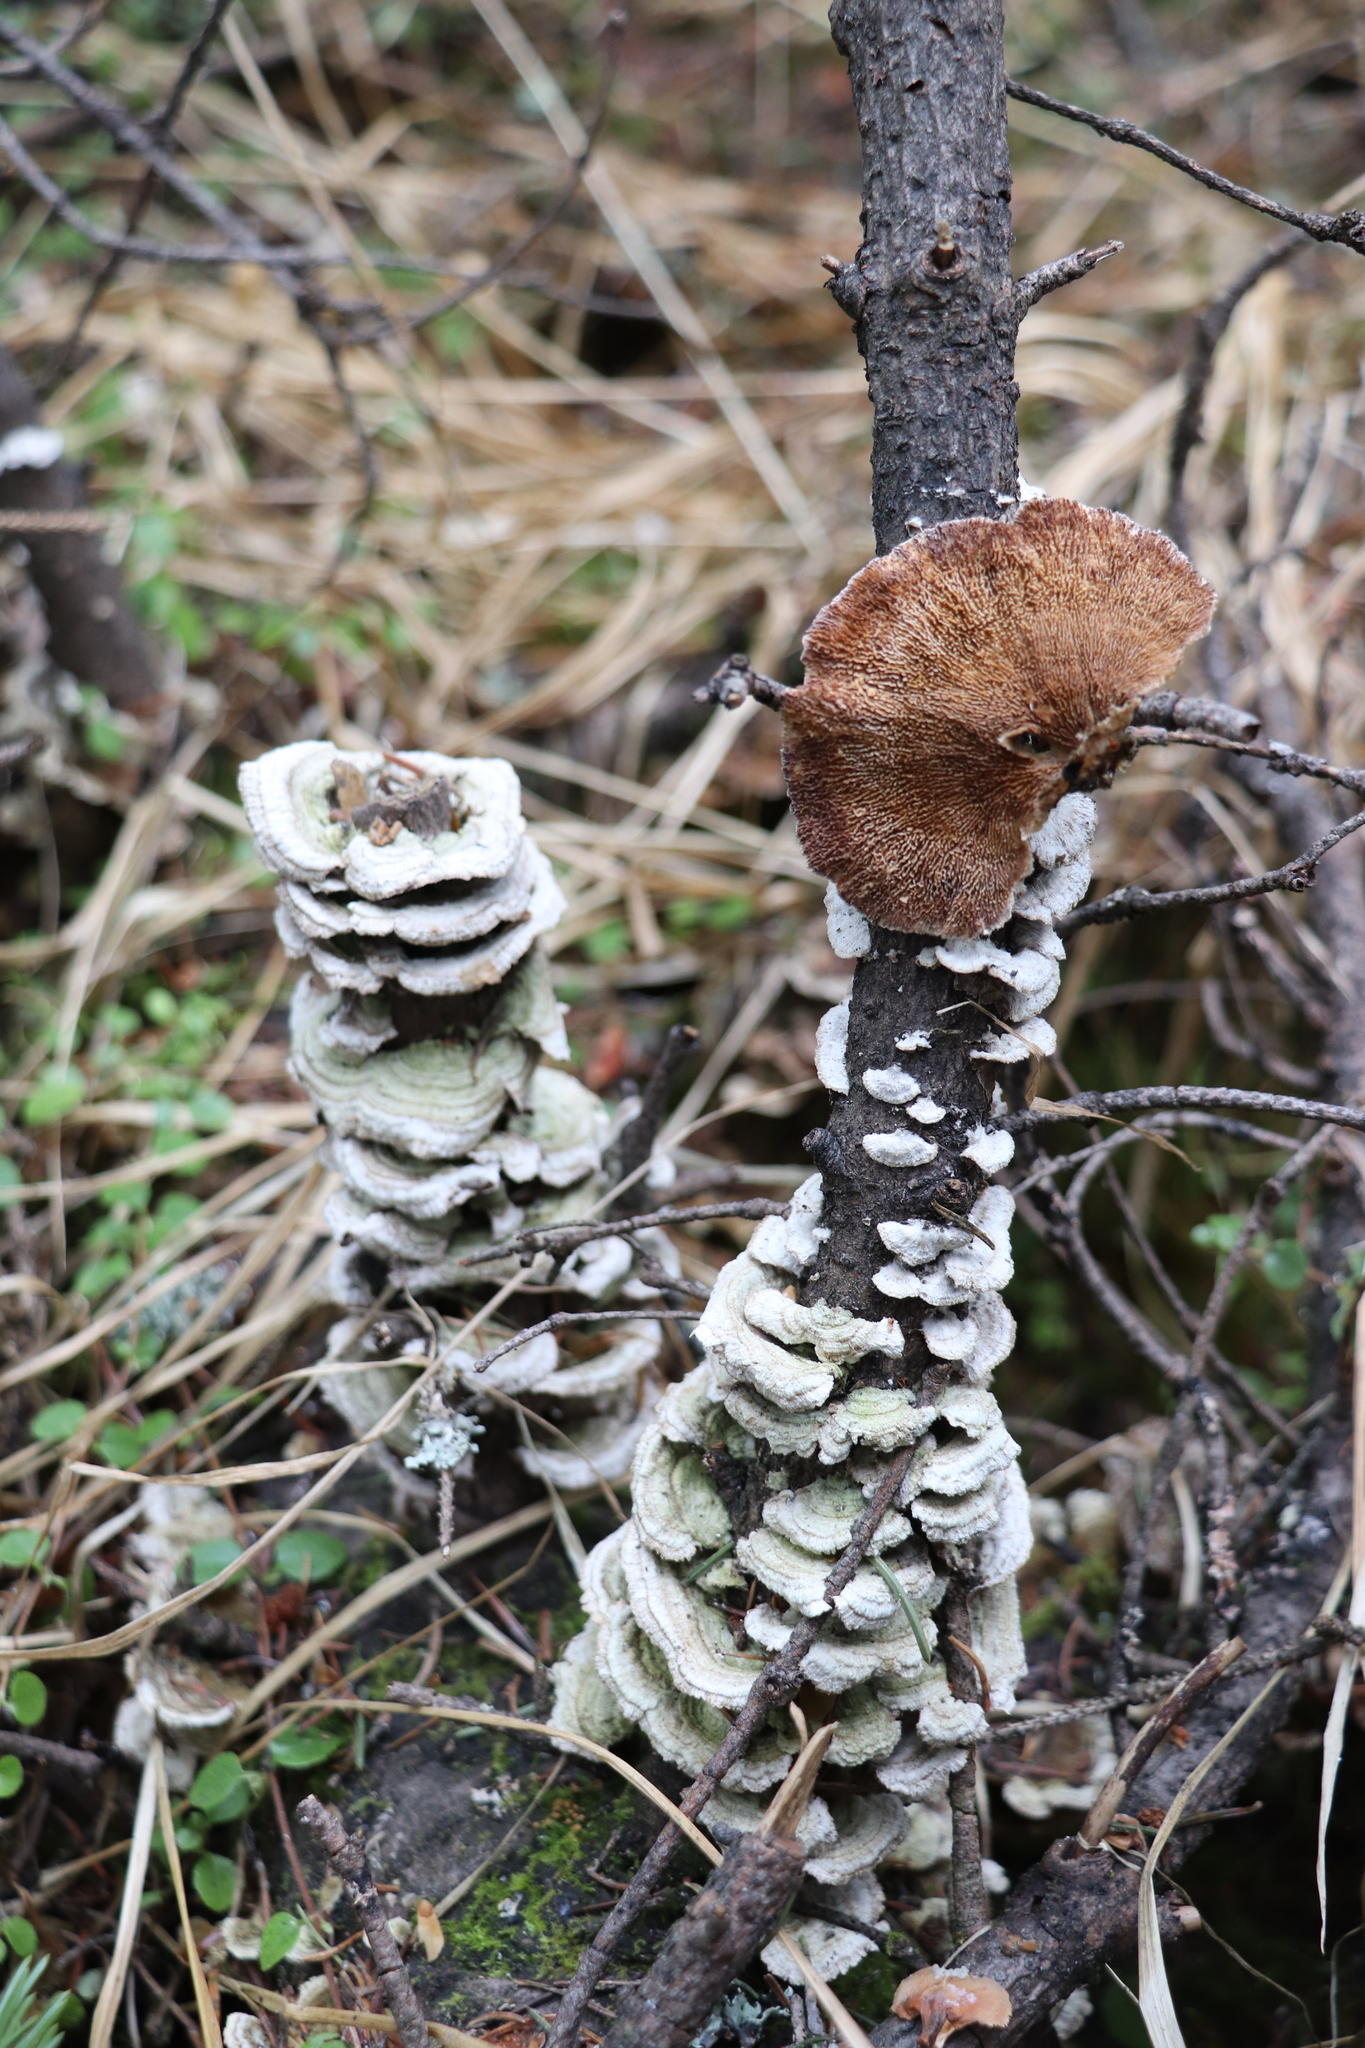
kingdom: Fungi
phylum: Basidiomycota
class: Agaricomycetes
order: Hymenochaetales
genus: Trichaptum
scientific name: Trichaptum fuscoviolaceum
